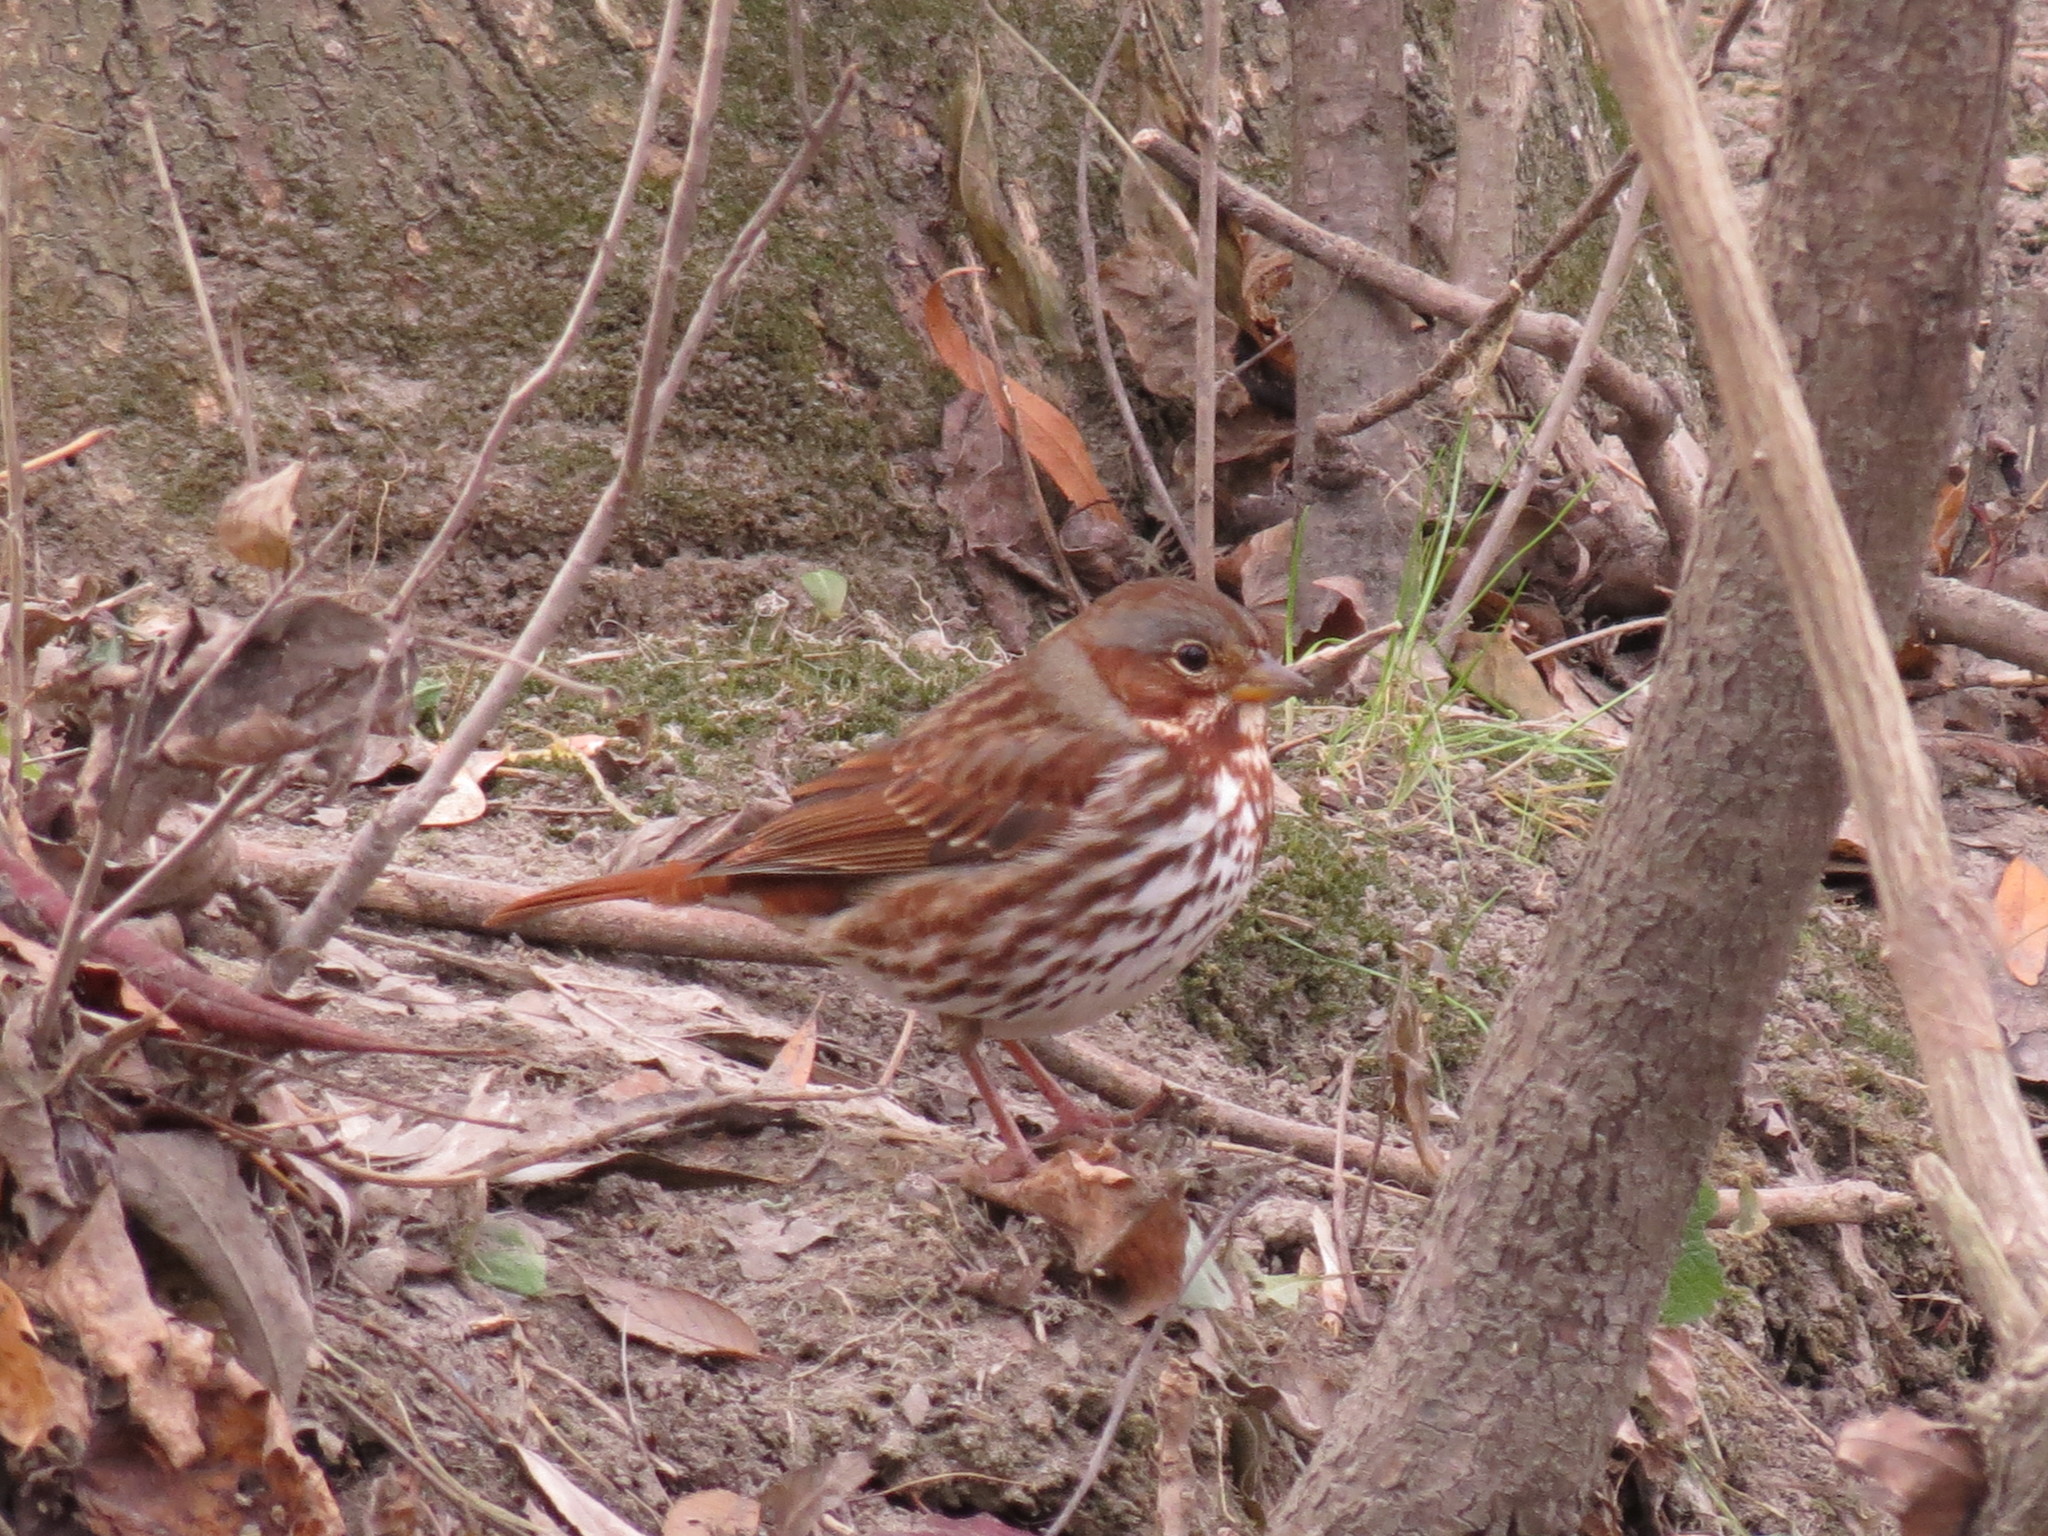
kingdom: Animalia
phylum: Chordata
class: Aves
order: Passeriformes
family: Passerellidae
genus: Passerella
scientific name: Passerella iliaca
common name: Fox sparrow
